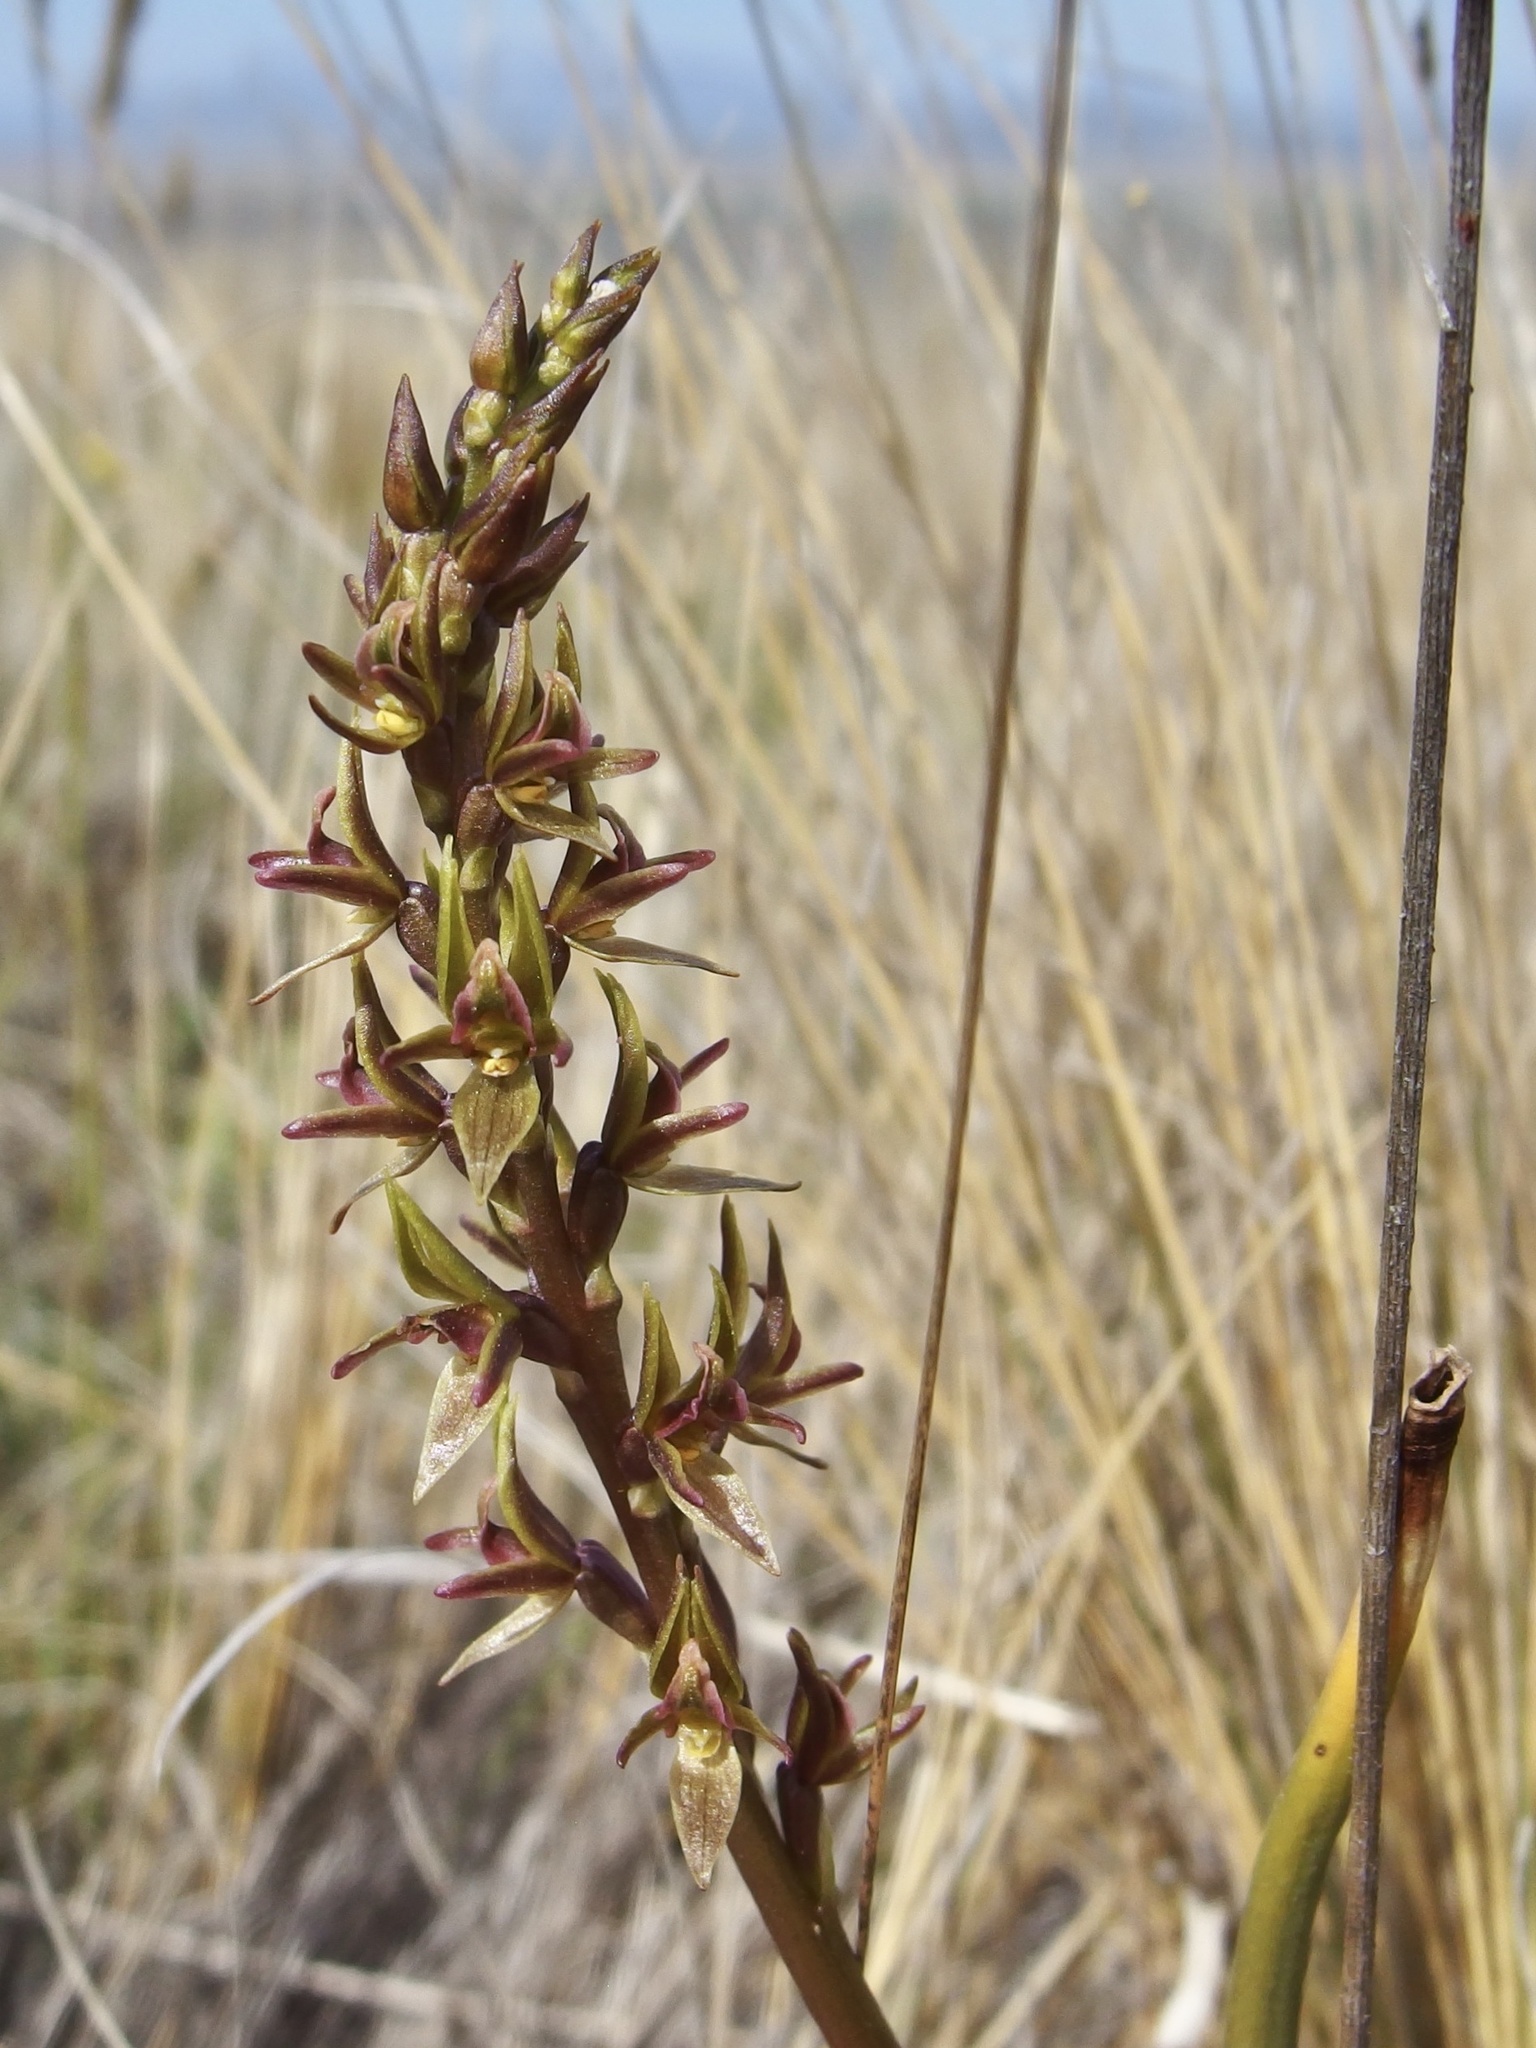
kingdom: Plantae
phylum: Tracheophyta
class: Liliopsida
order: Asparagales
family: Orchidaceae
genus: Prasophyllum
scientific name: Prasophyllum colensoi
